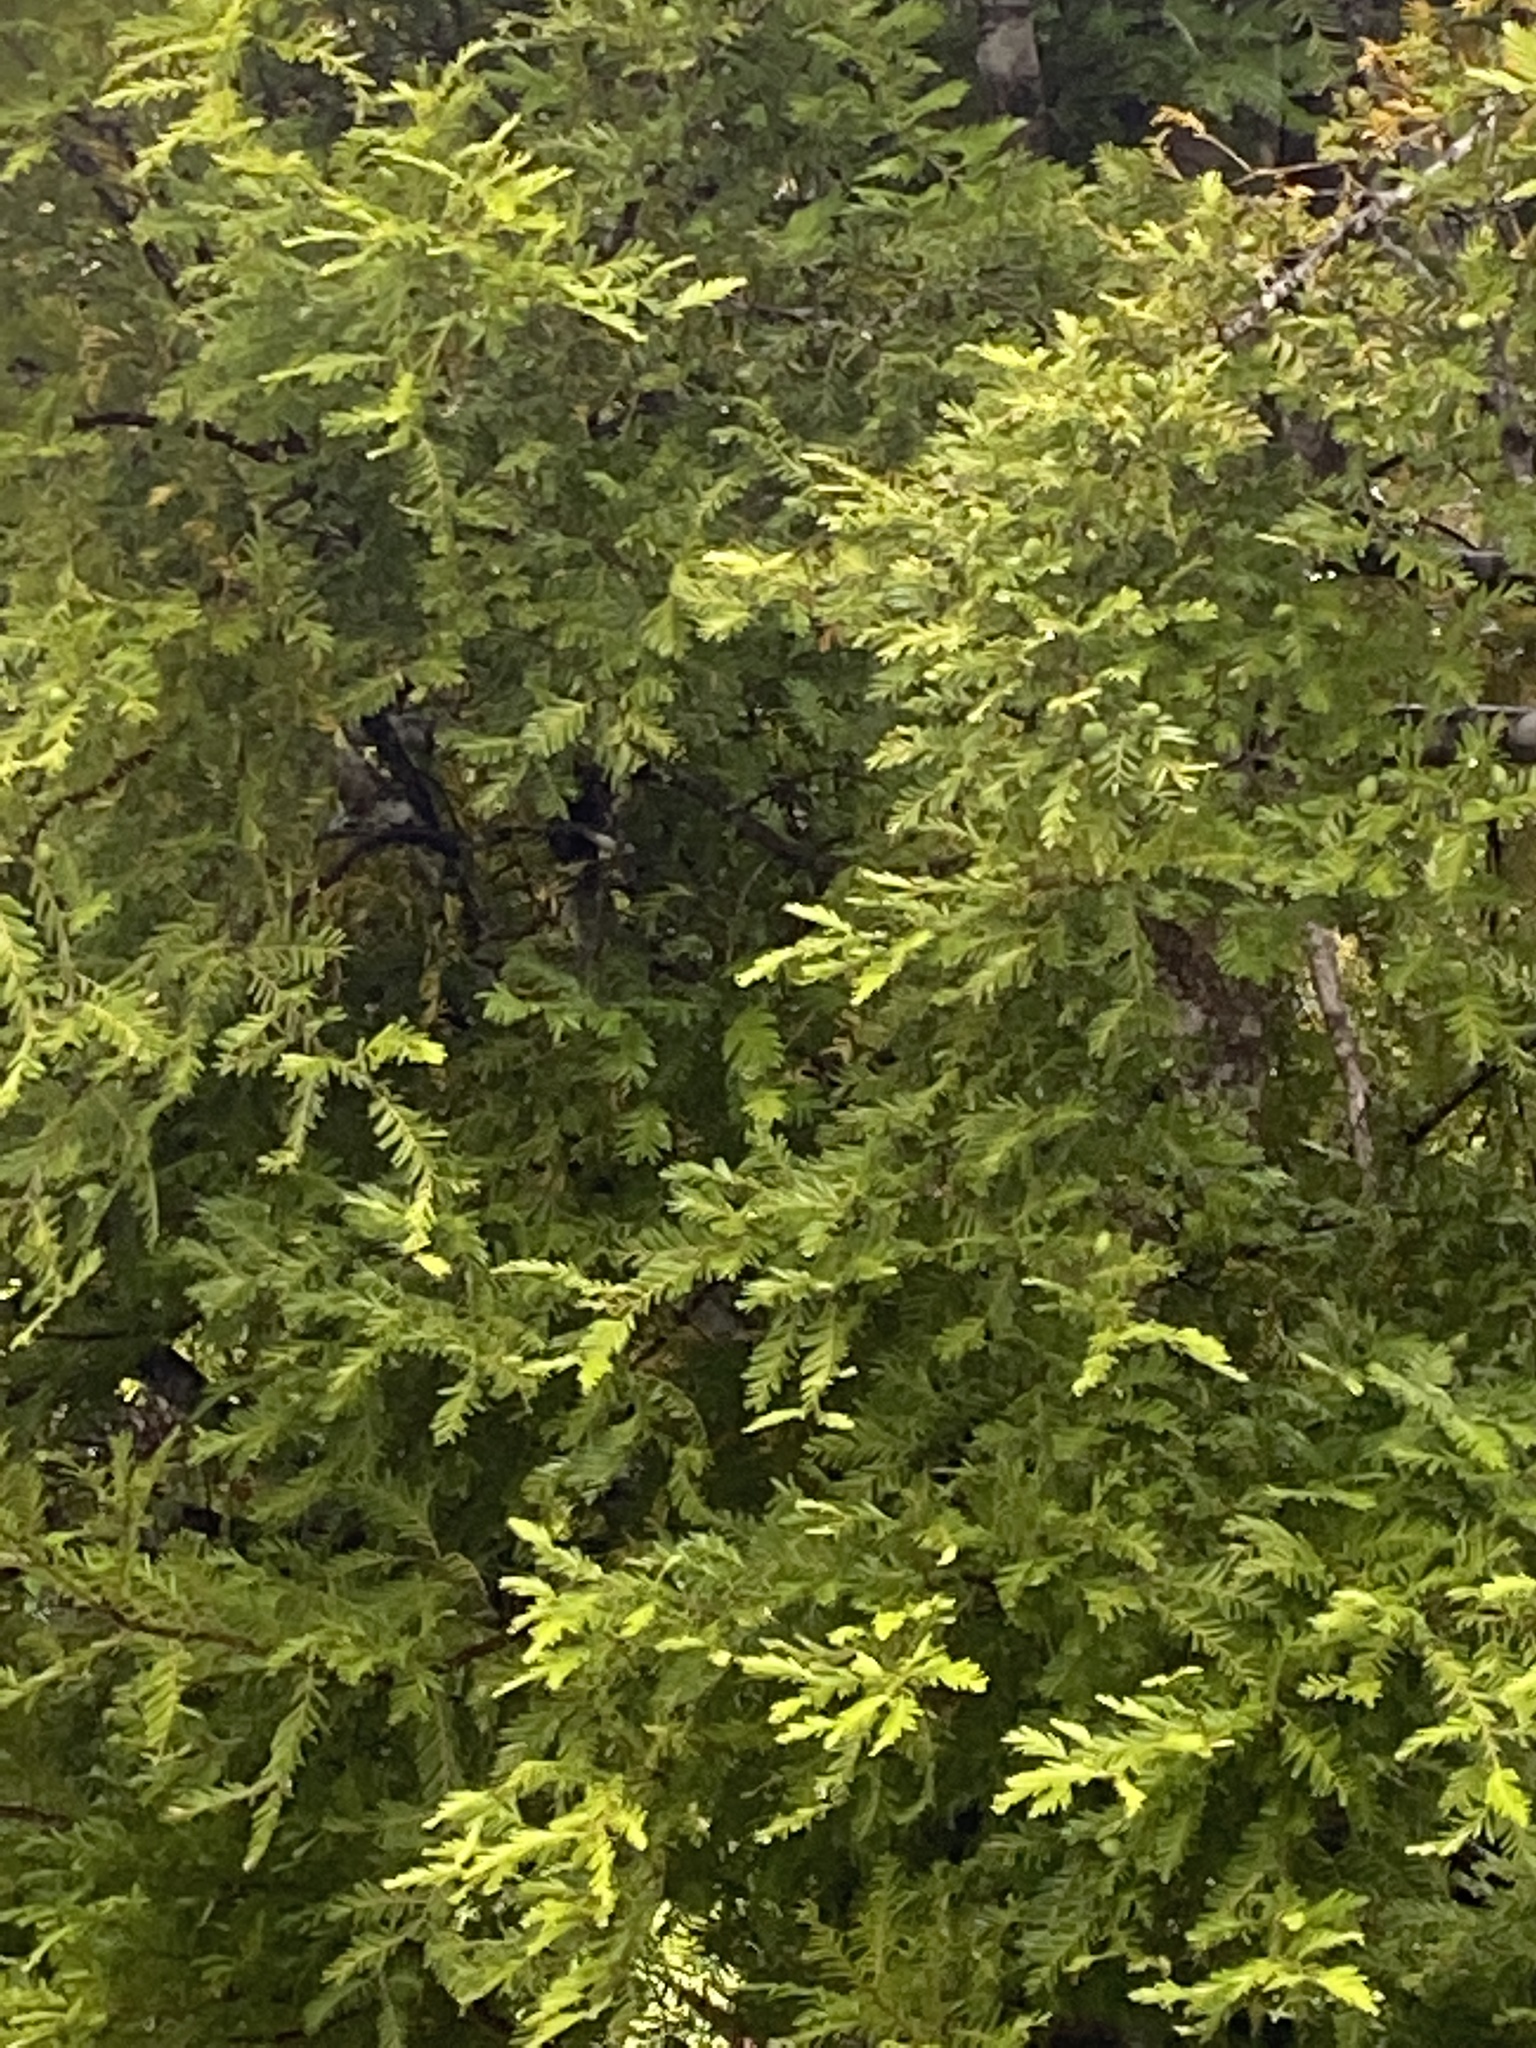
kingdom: Plantae
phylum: Tracheophyta
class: Pinopsida
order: Pinales
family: Podocarpaceae
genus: Prumnopitys
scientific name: Prumnopitys ferruginea
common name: Brown pine
